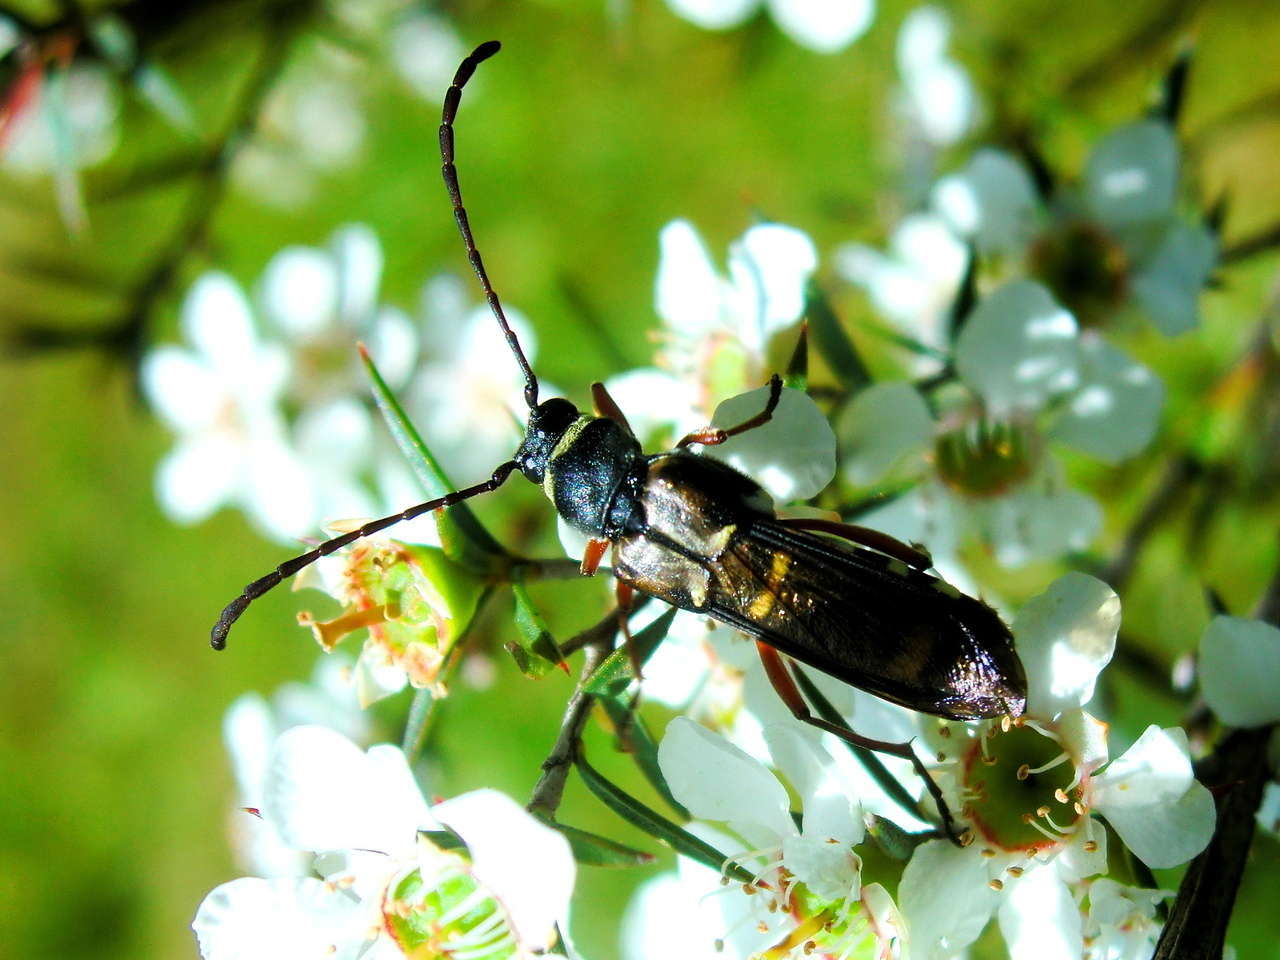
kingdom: Animalia
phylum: Arthropoda
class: Insecta
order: Coleoptera
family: Cerambycidae
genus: Hesthesis
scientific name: Hesthesis assimilis
